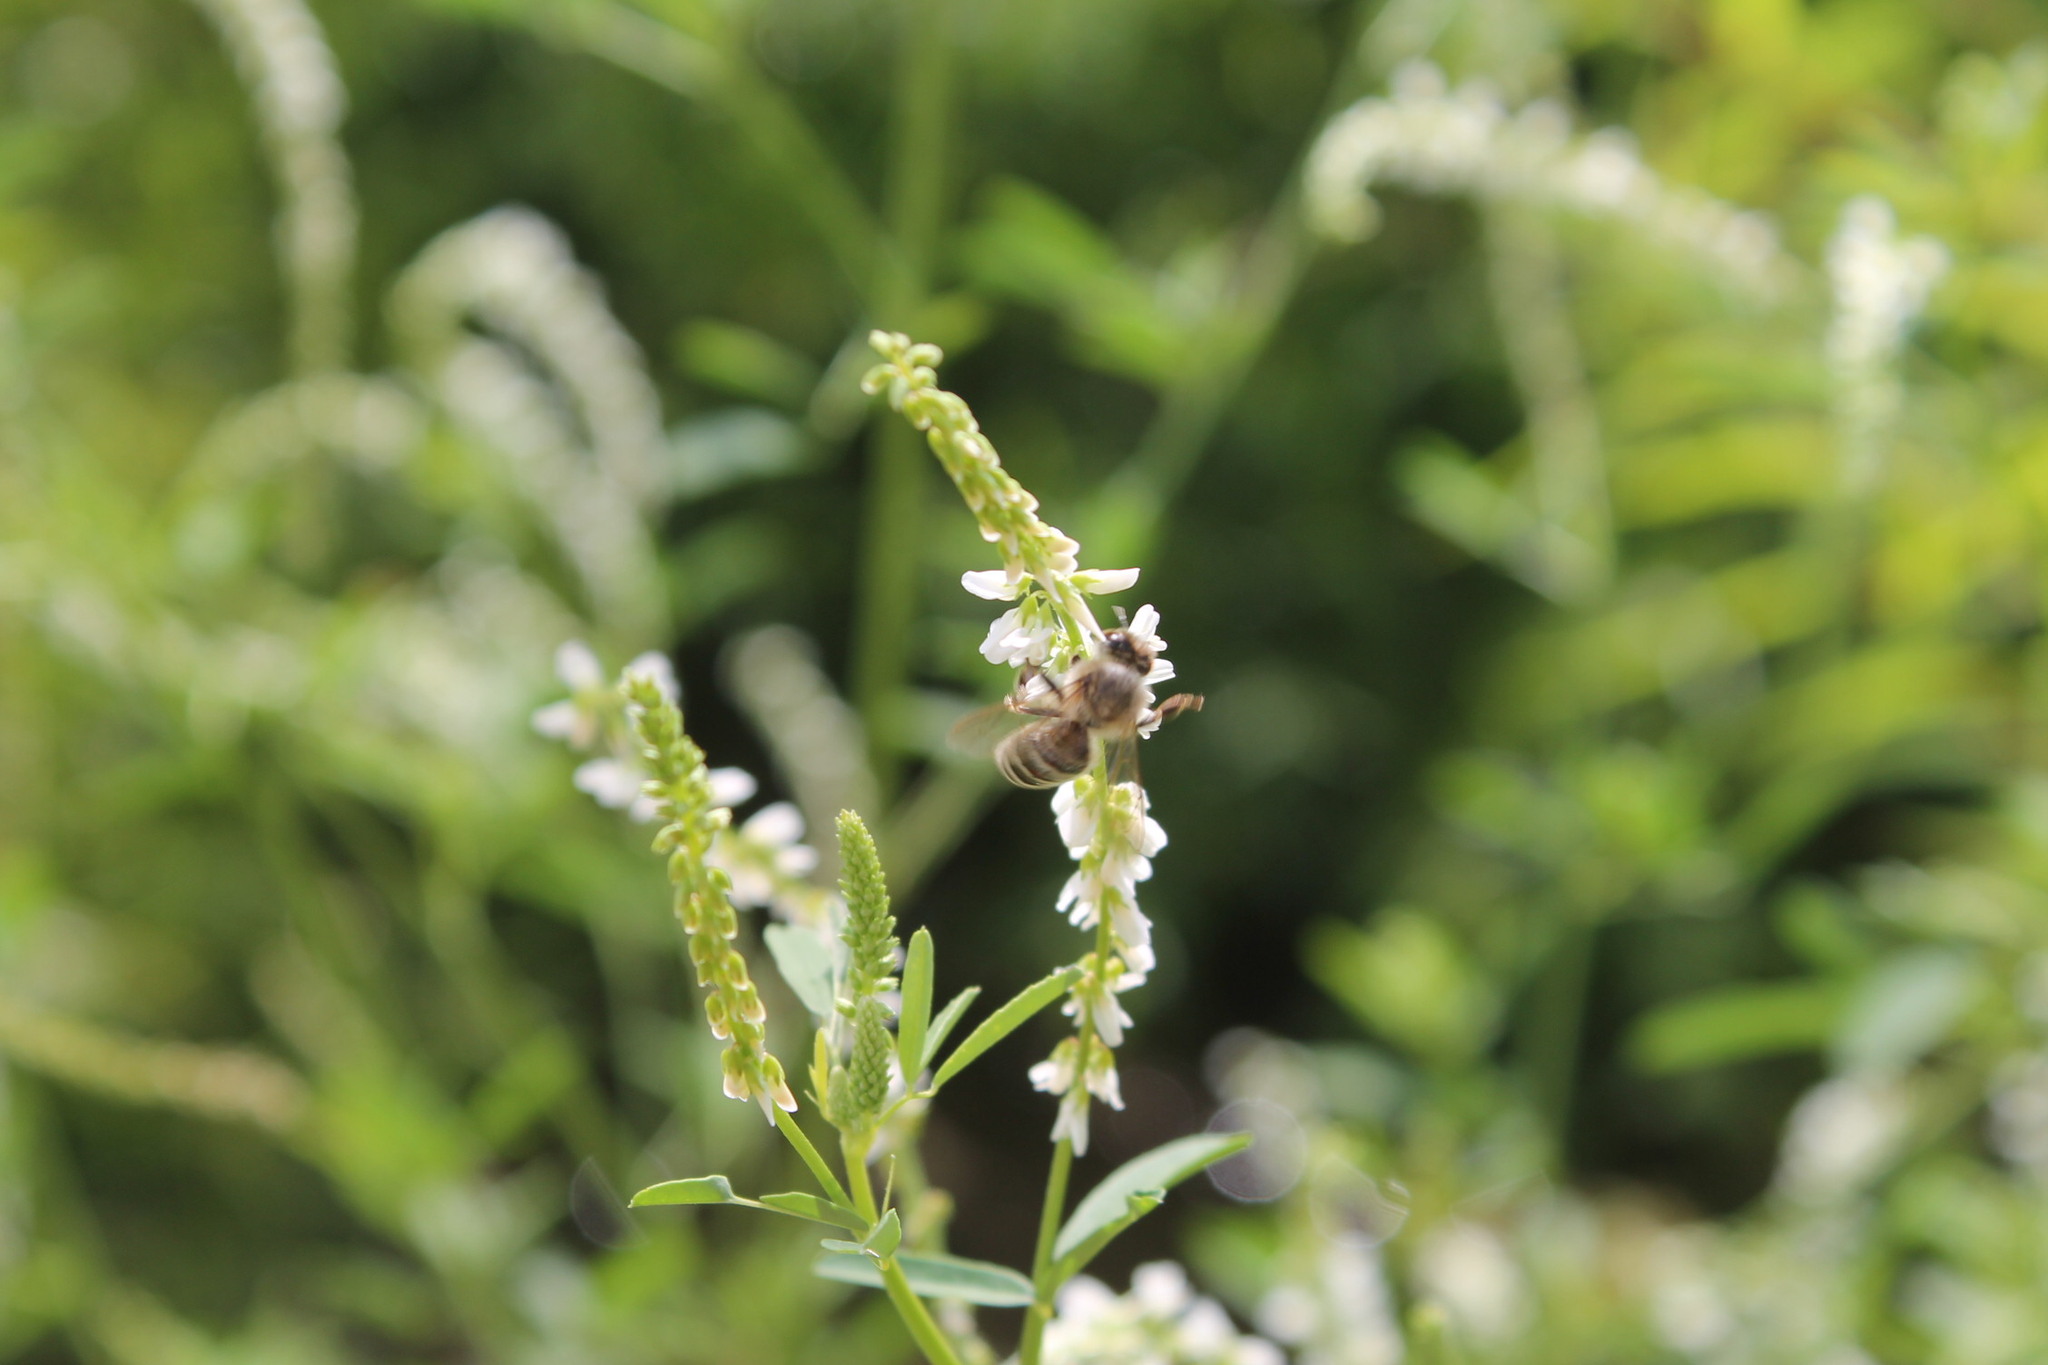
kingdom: Animalia
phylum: Arthropoda
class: Insecta
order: Hymenoptera
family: Apidae
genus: Apis
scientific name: Apis mellifera
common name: Honey bee
